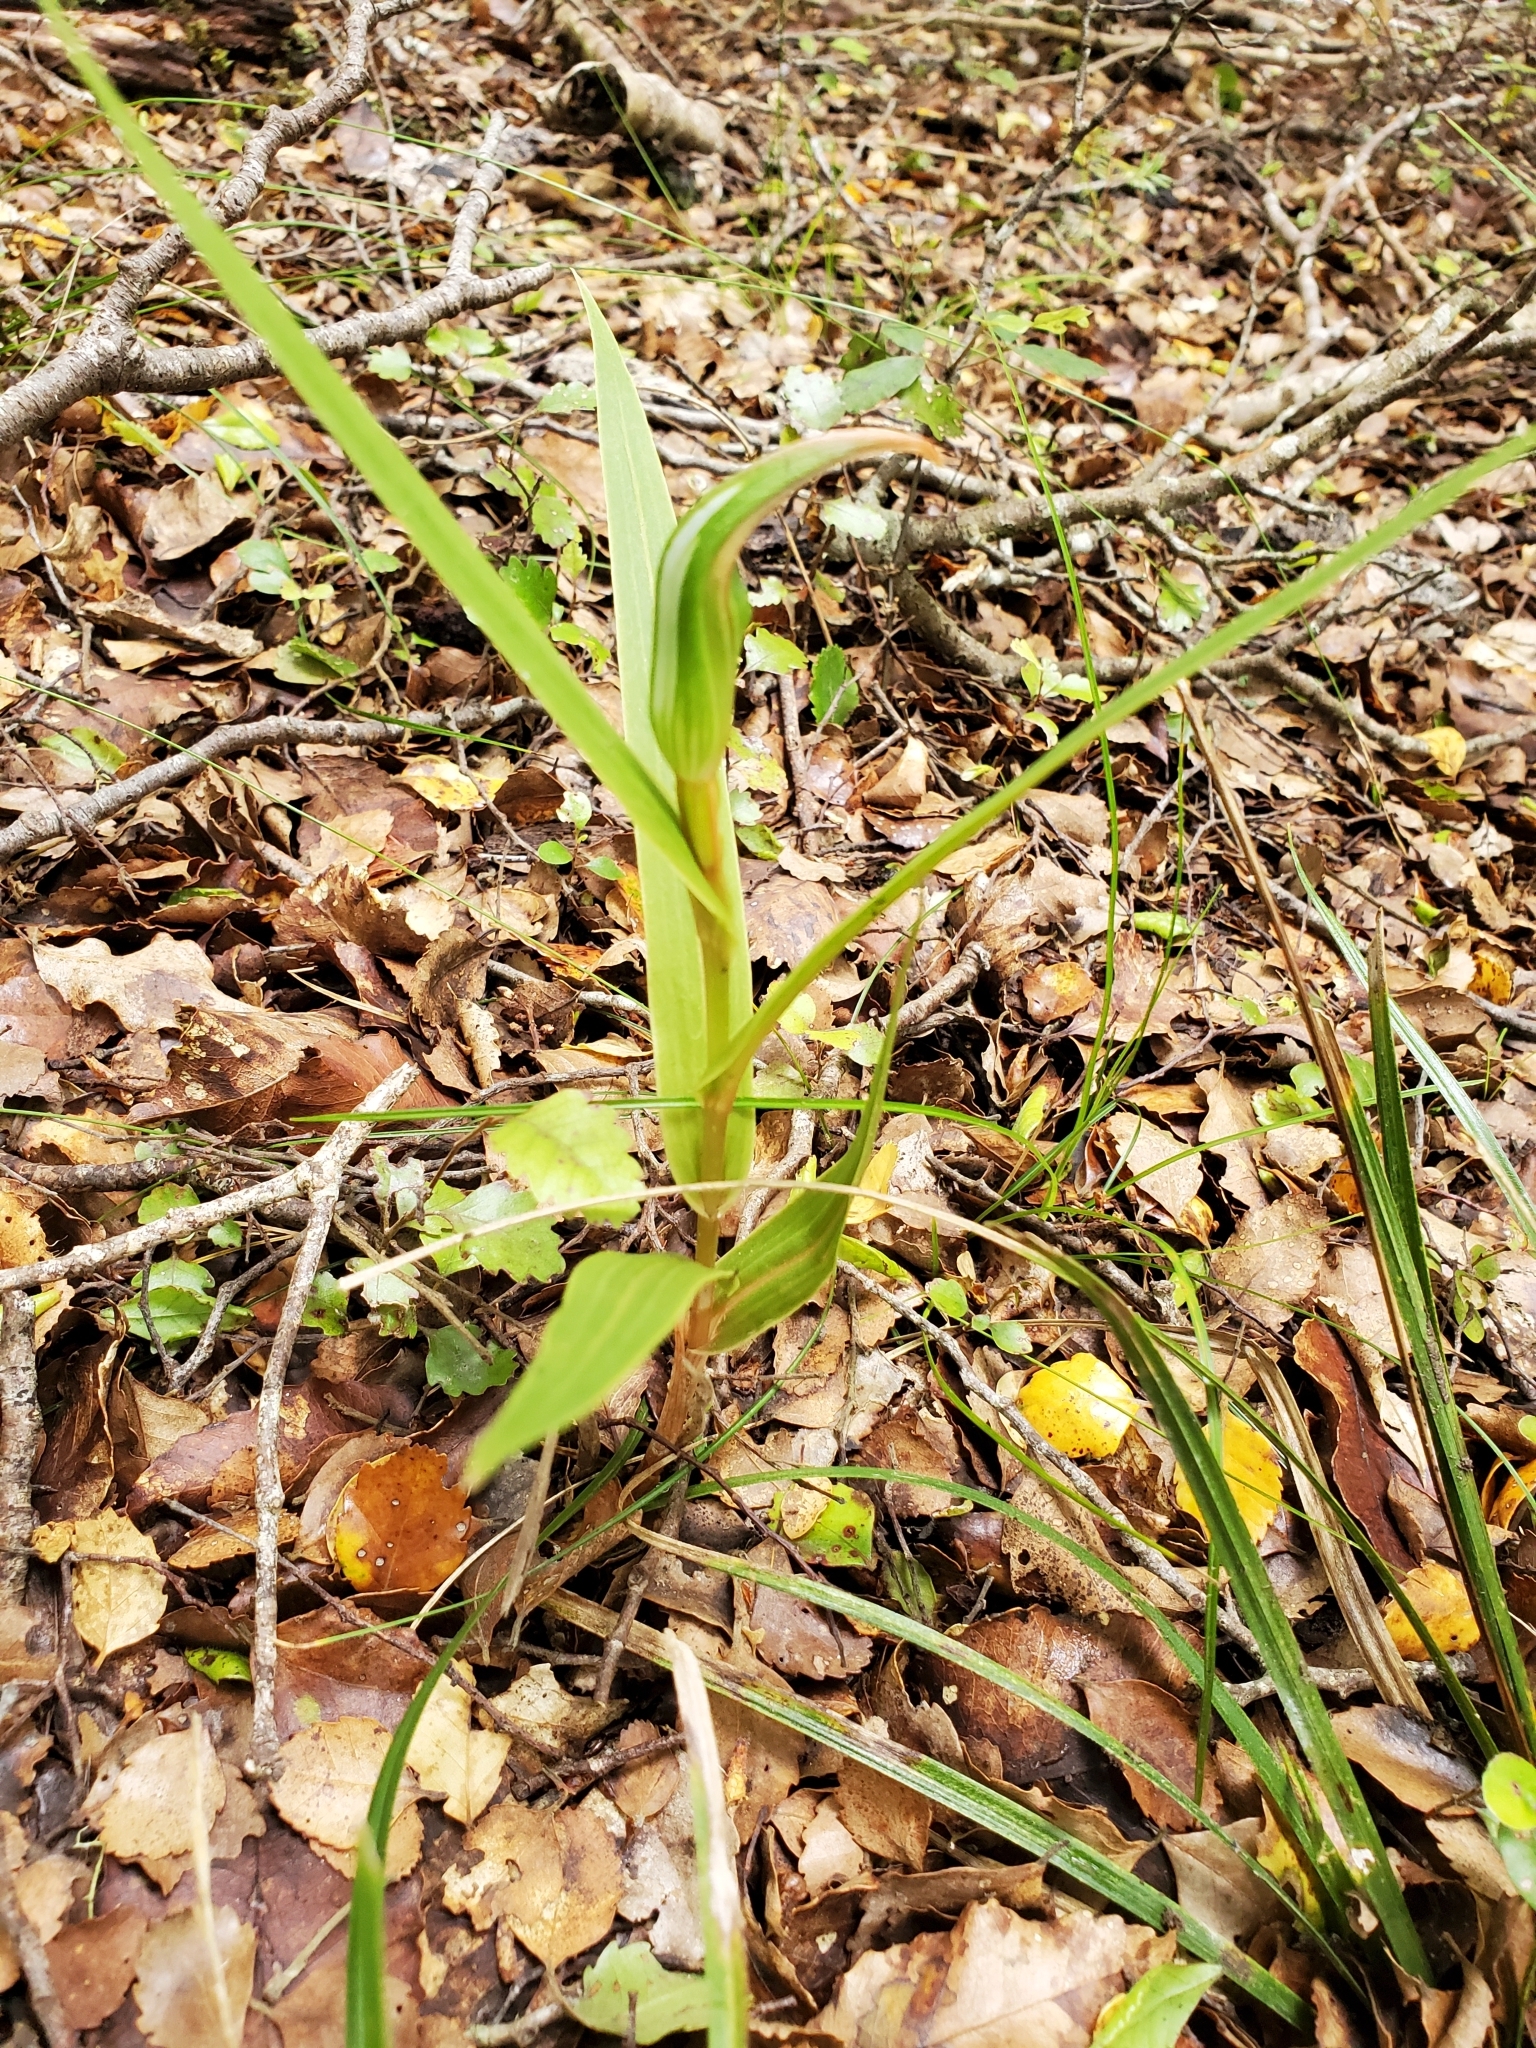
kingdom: Plantae
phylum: Tracheophyta
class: Liliopsida
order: Asparagales
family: Orchidaceae
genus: Pterostylis
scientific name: Pterostylis cardiostigma
